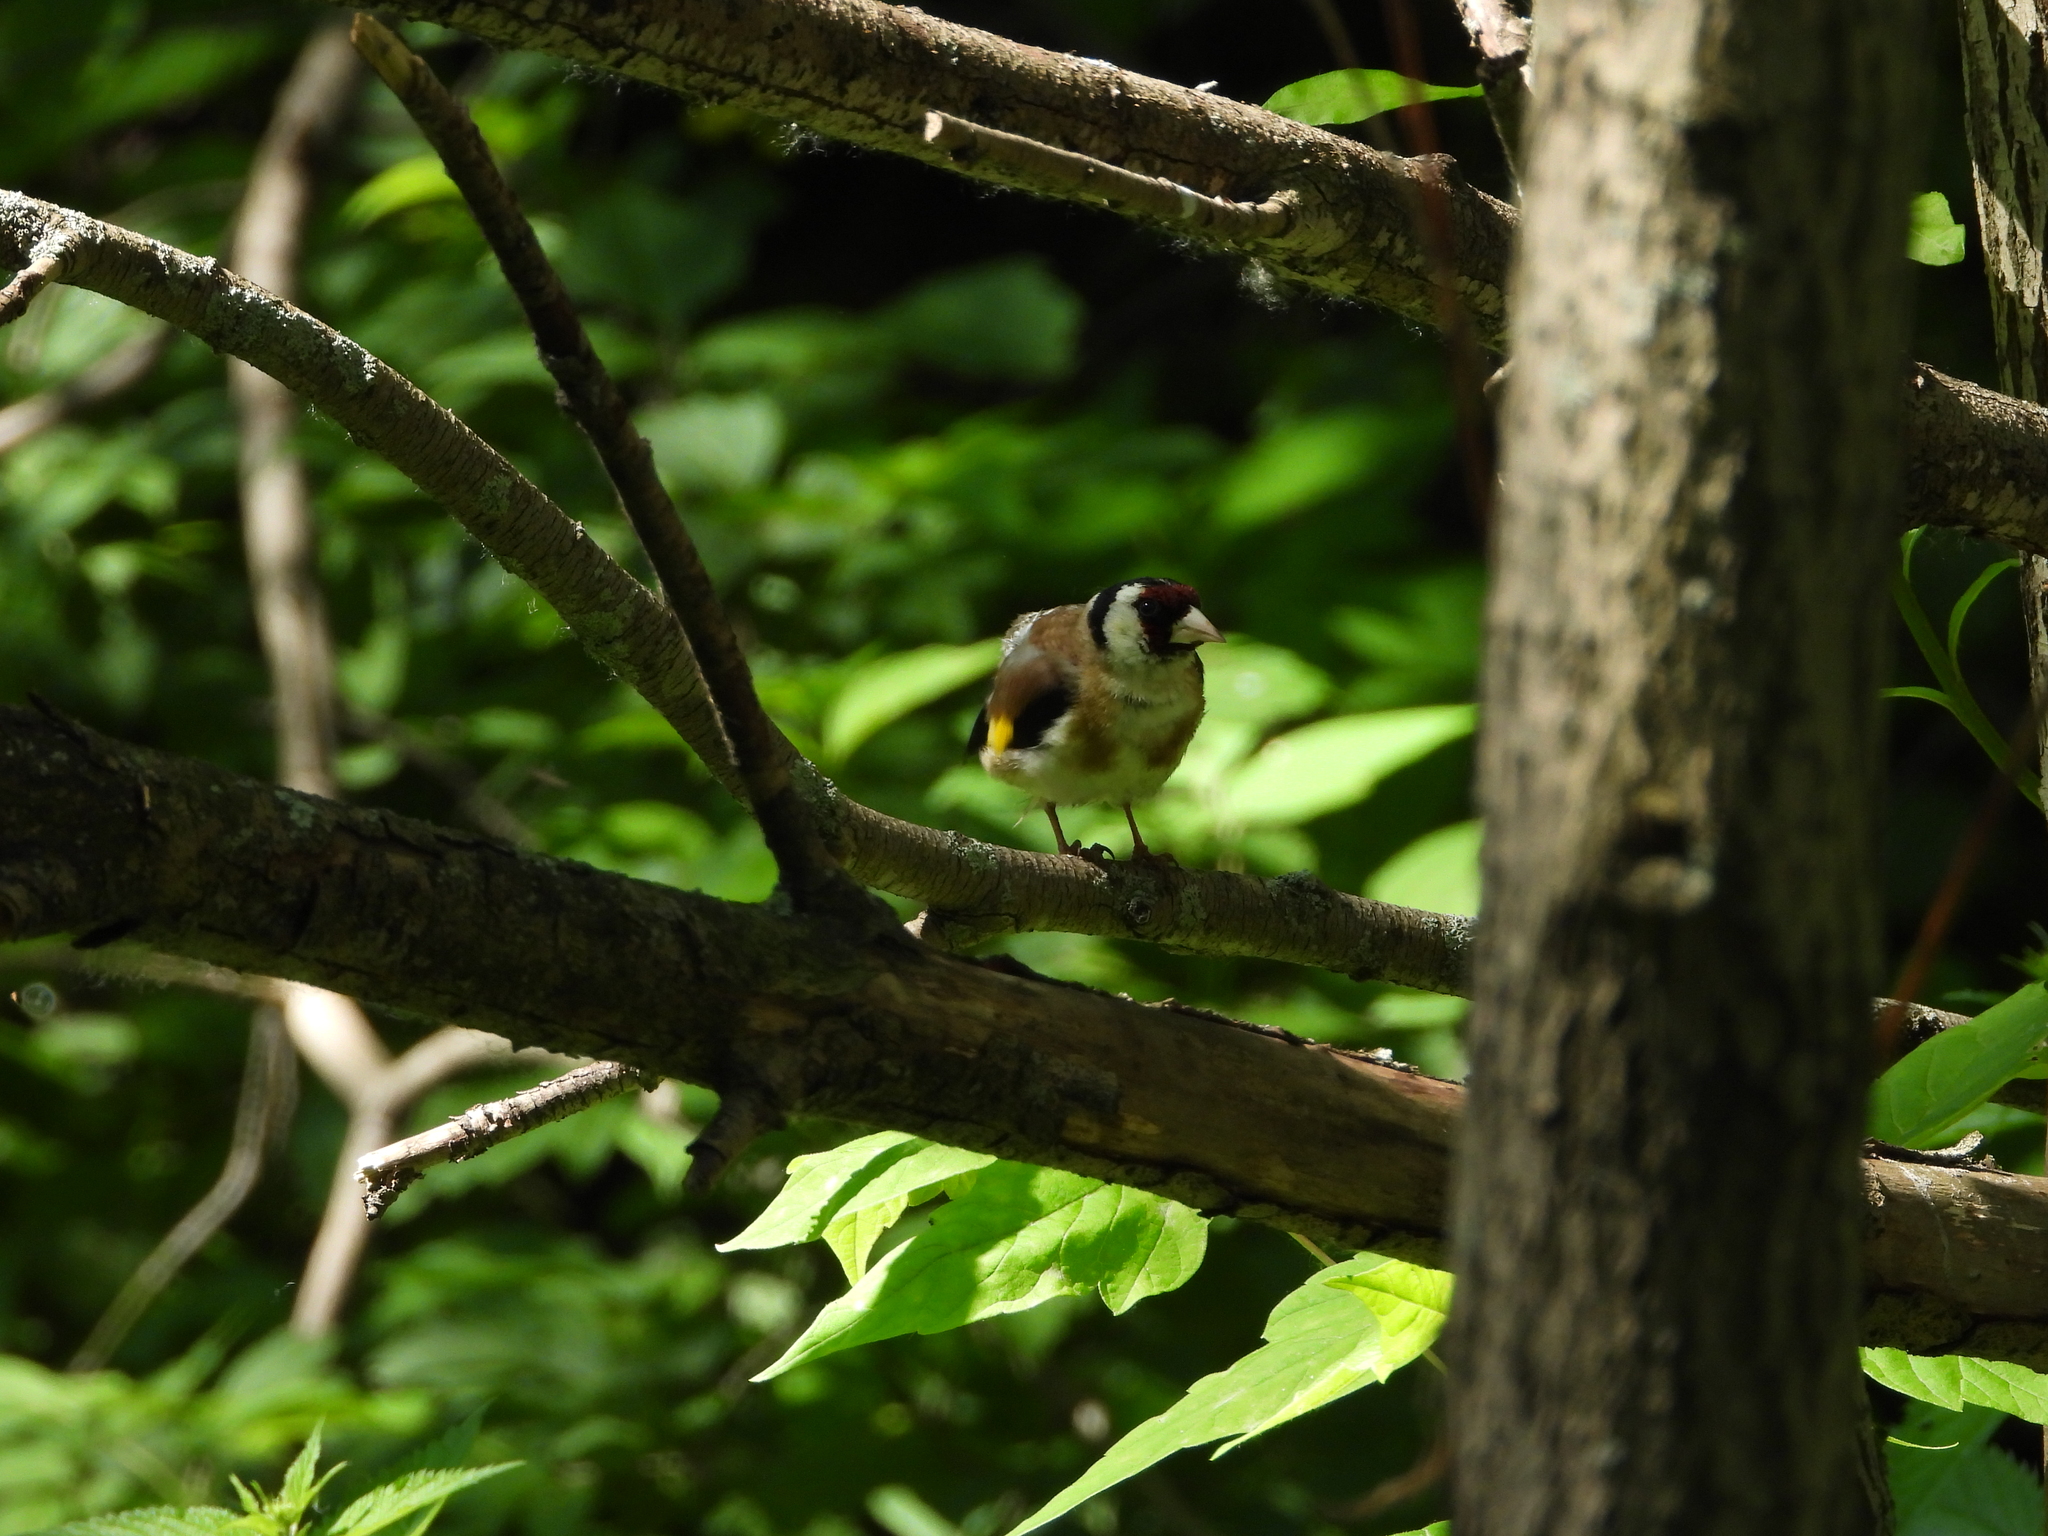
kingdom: Animalia
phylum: Chordata
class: Aves
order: Passeriformes
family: Fringillidae
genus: Carduelis
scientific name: Carduelis carduelis
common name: European goldfinch
